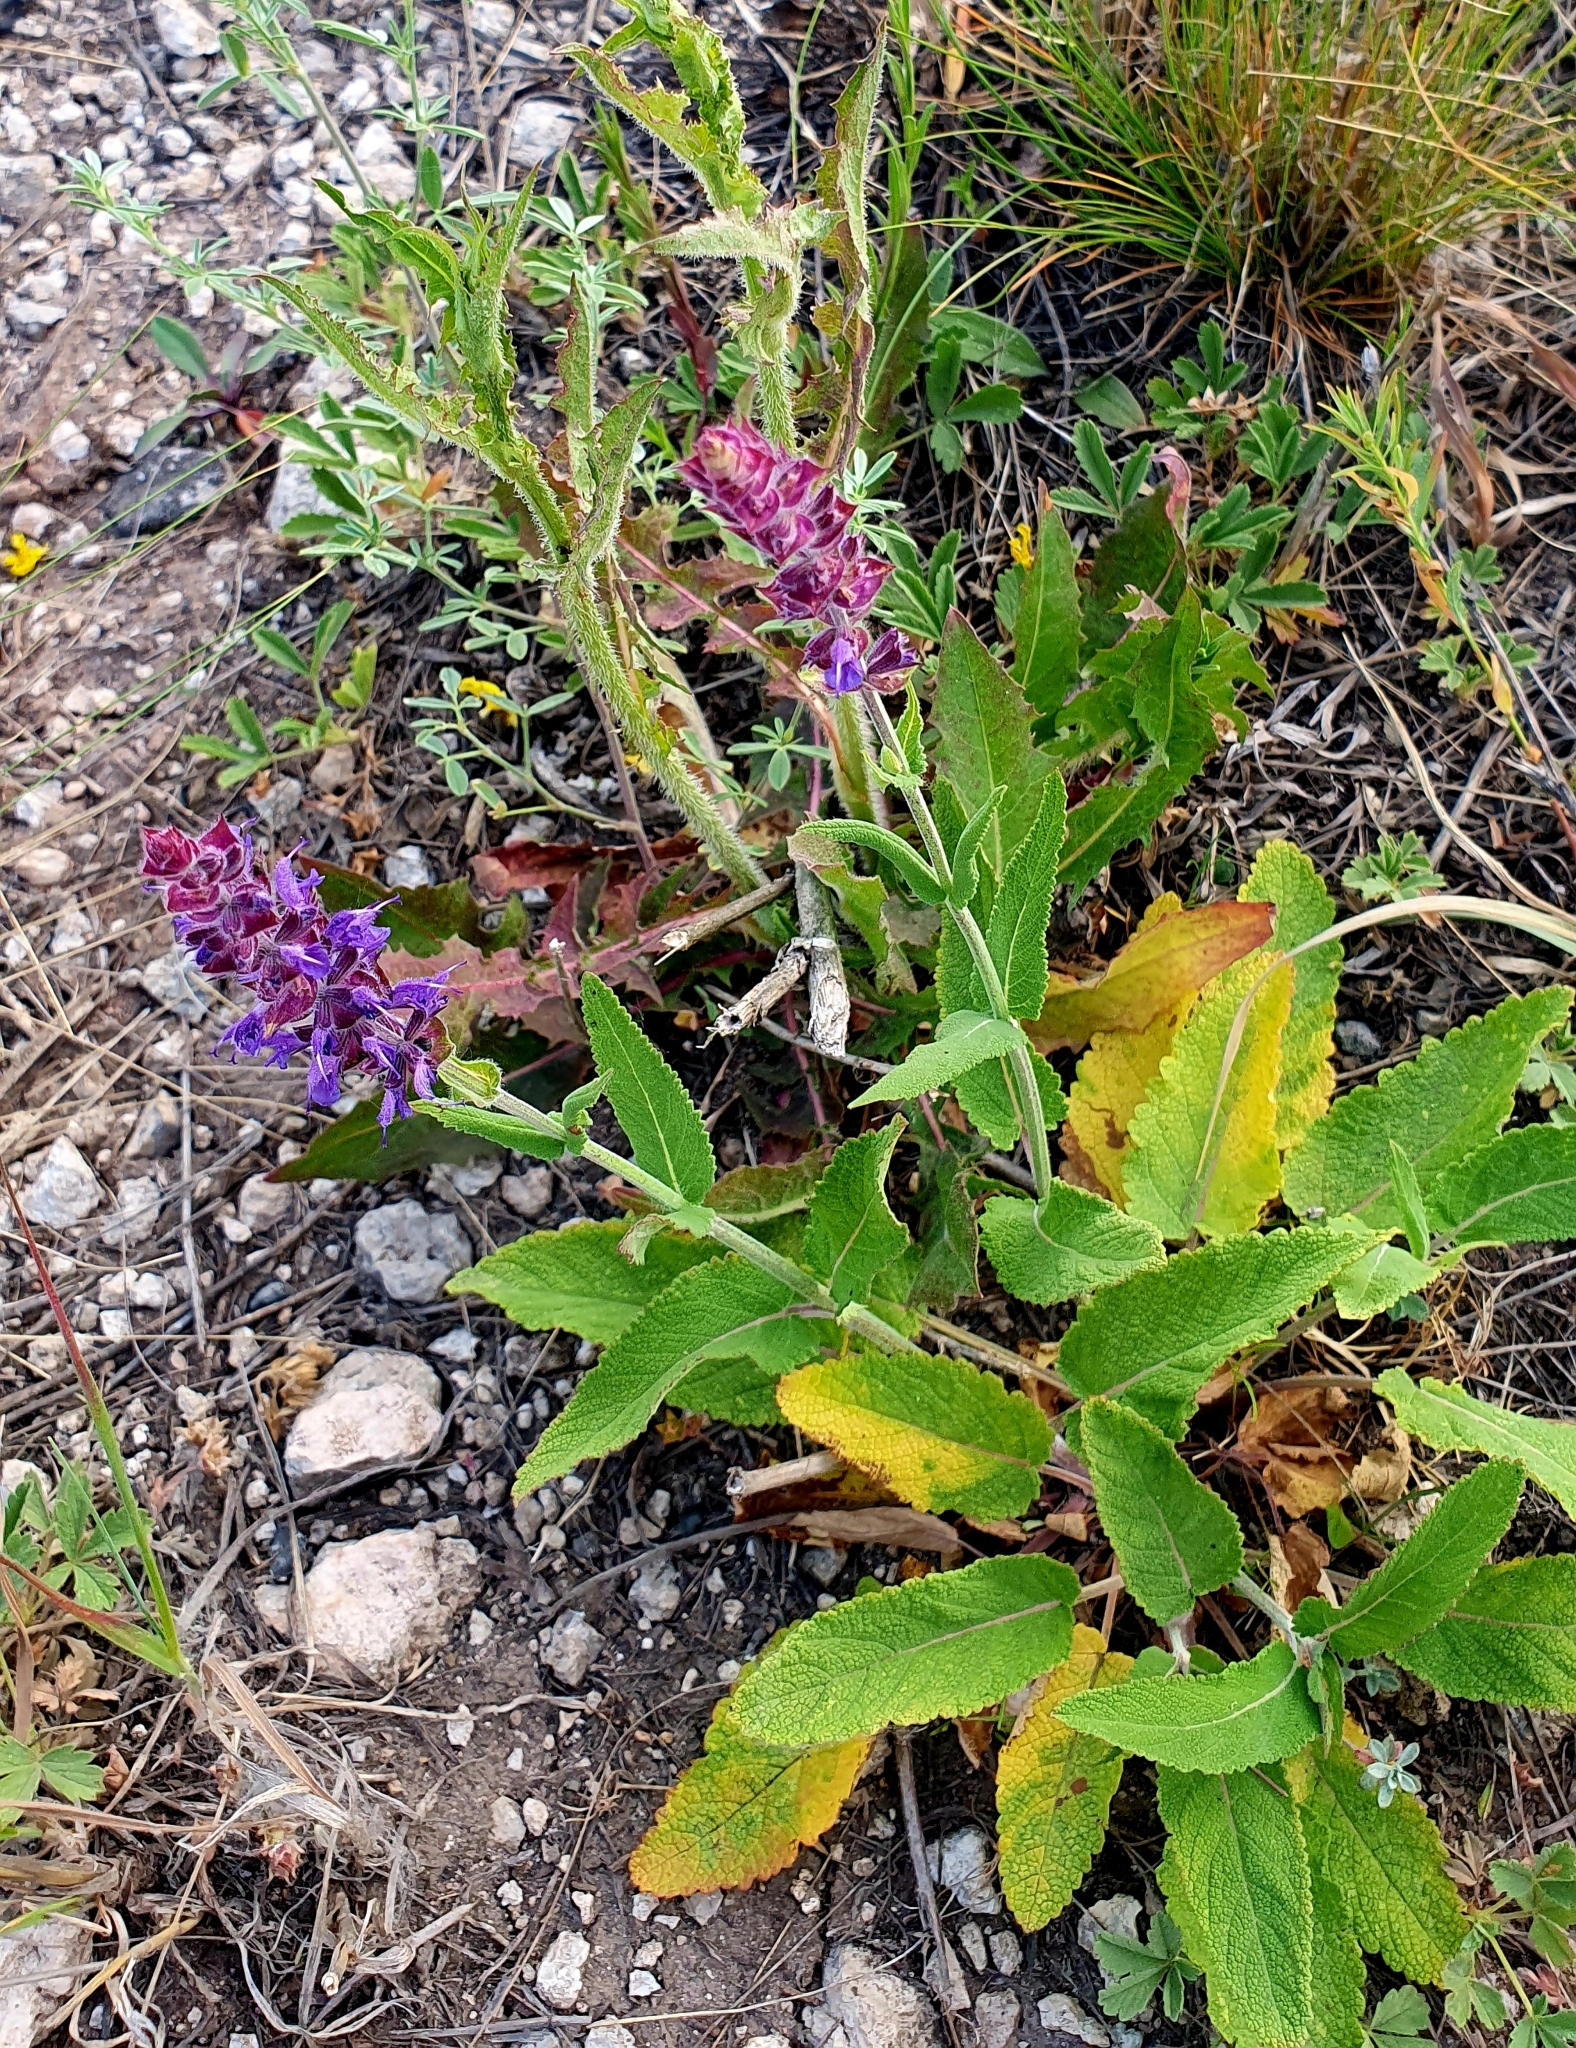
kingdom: Plantae
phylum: Tracheophyta
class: Magnoliopsida
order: Lamiales
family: Lamiaceae
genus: Salvia
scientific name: Salvia nemorosa
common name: Balkan clary
